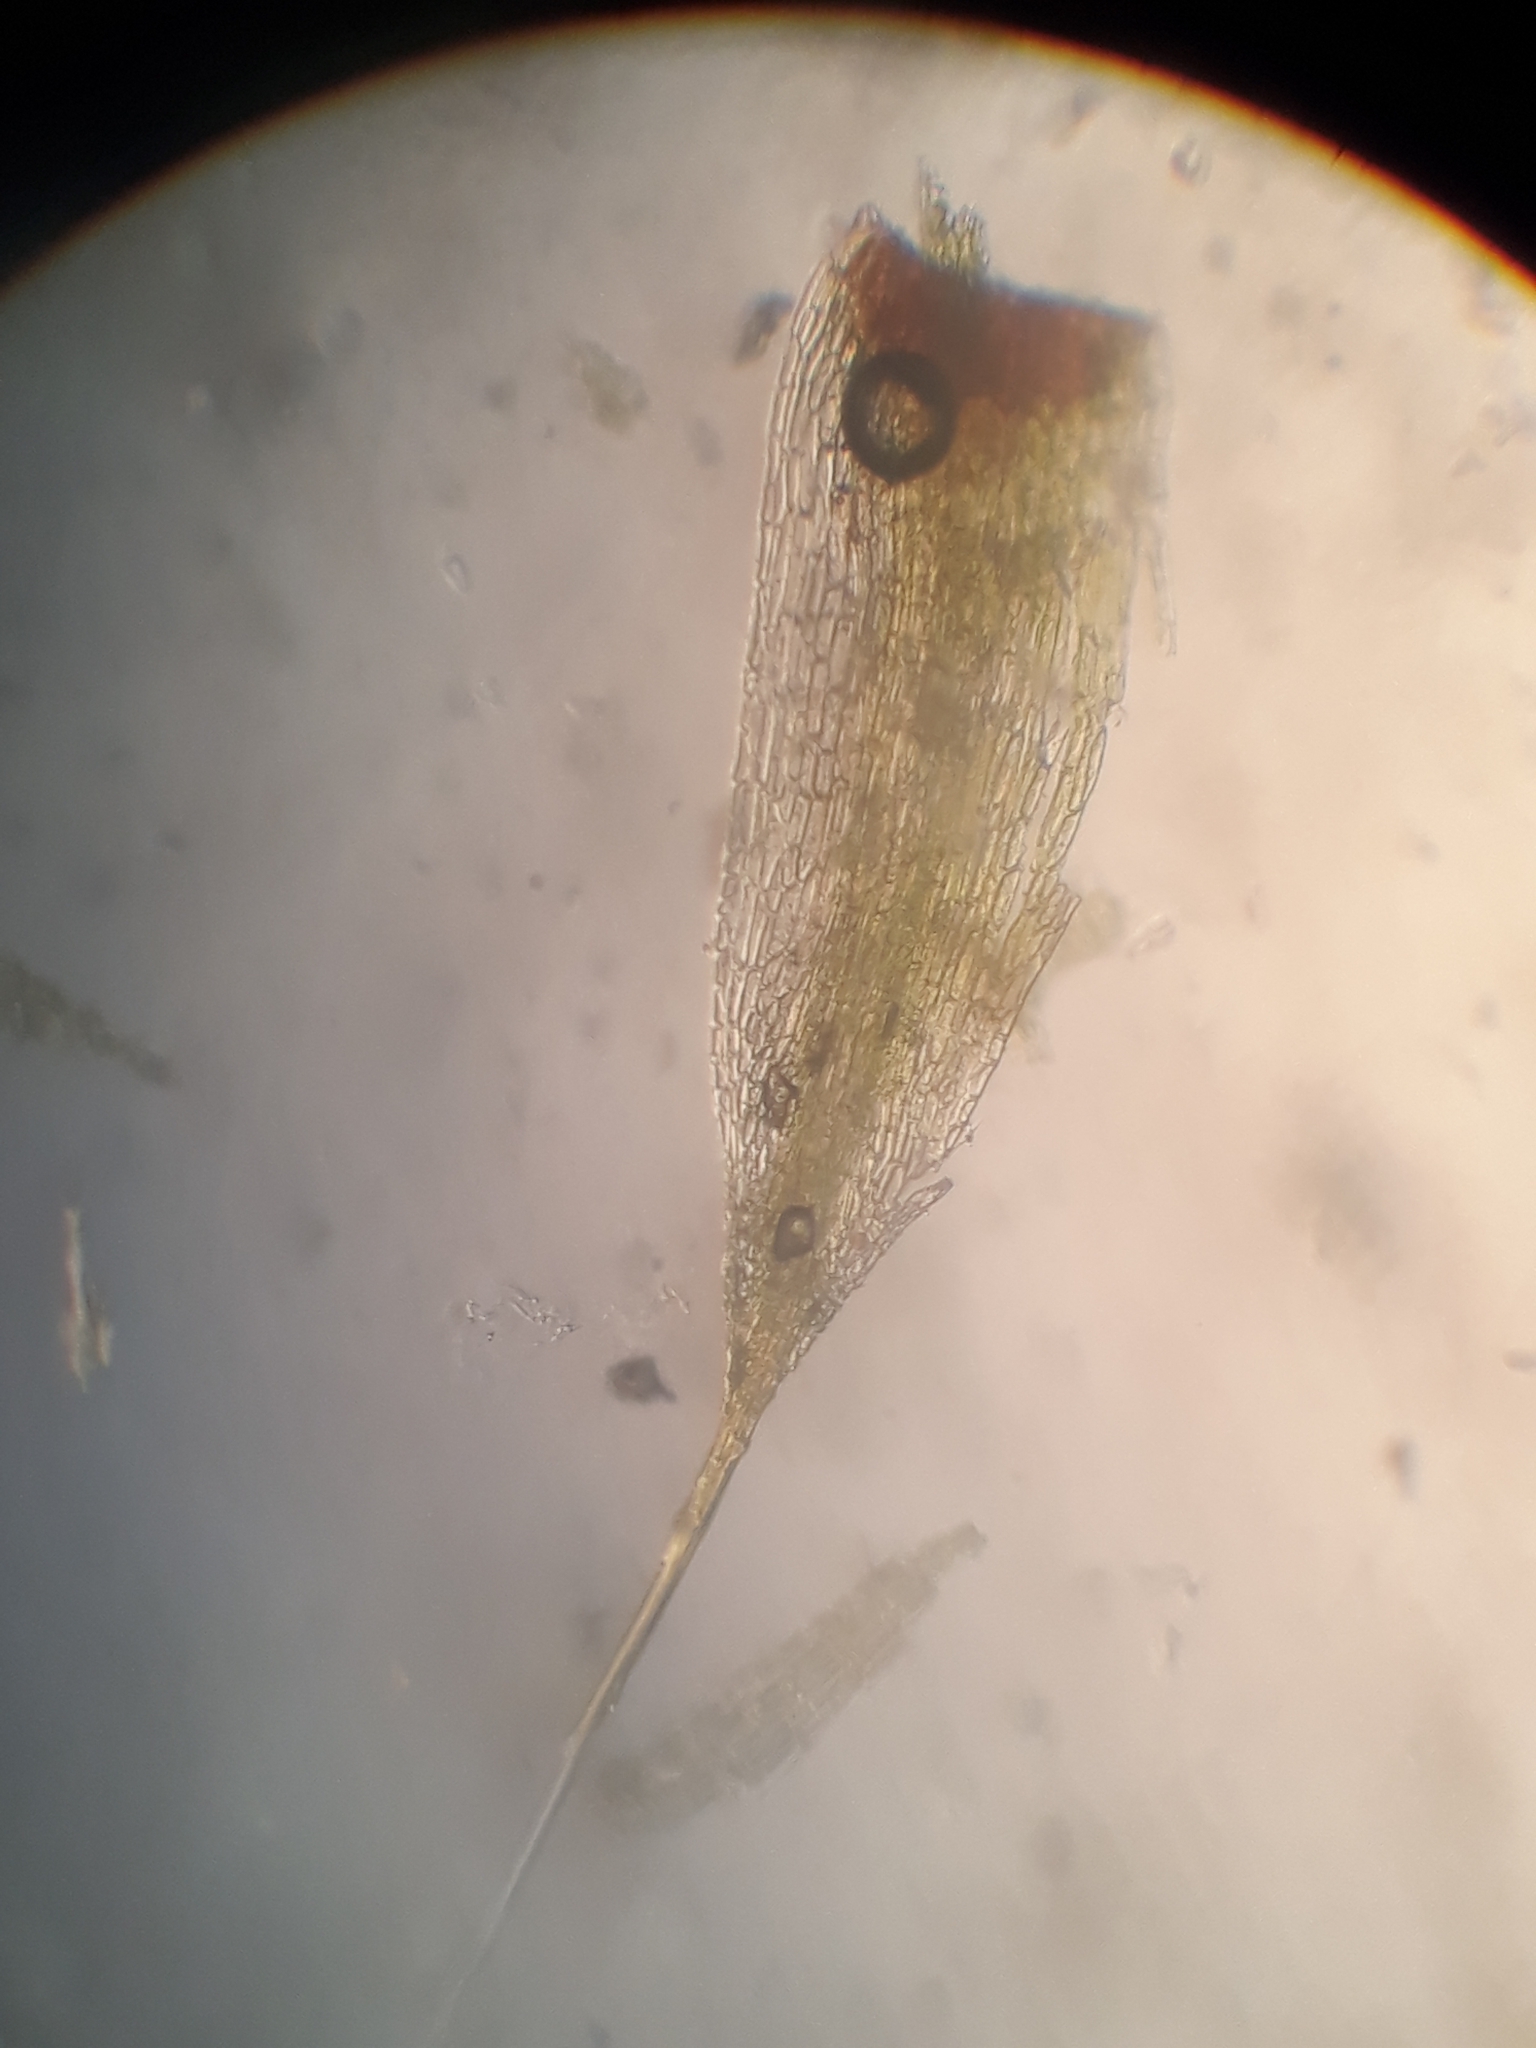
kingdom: Plantae
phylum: Bryophyta
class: Bryopsida
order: Bartramiales
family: Bartramiaceae
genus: Conostomum
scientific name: Conostomum pentastichum
